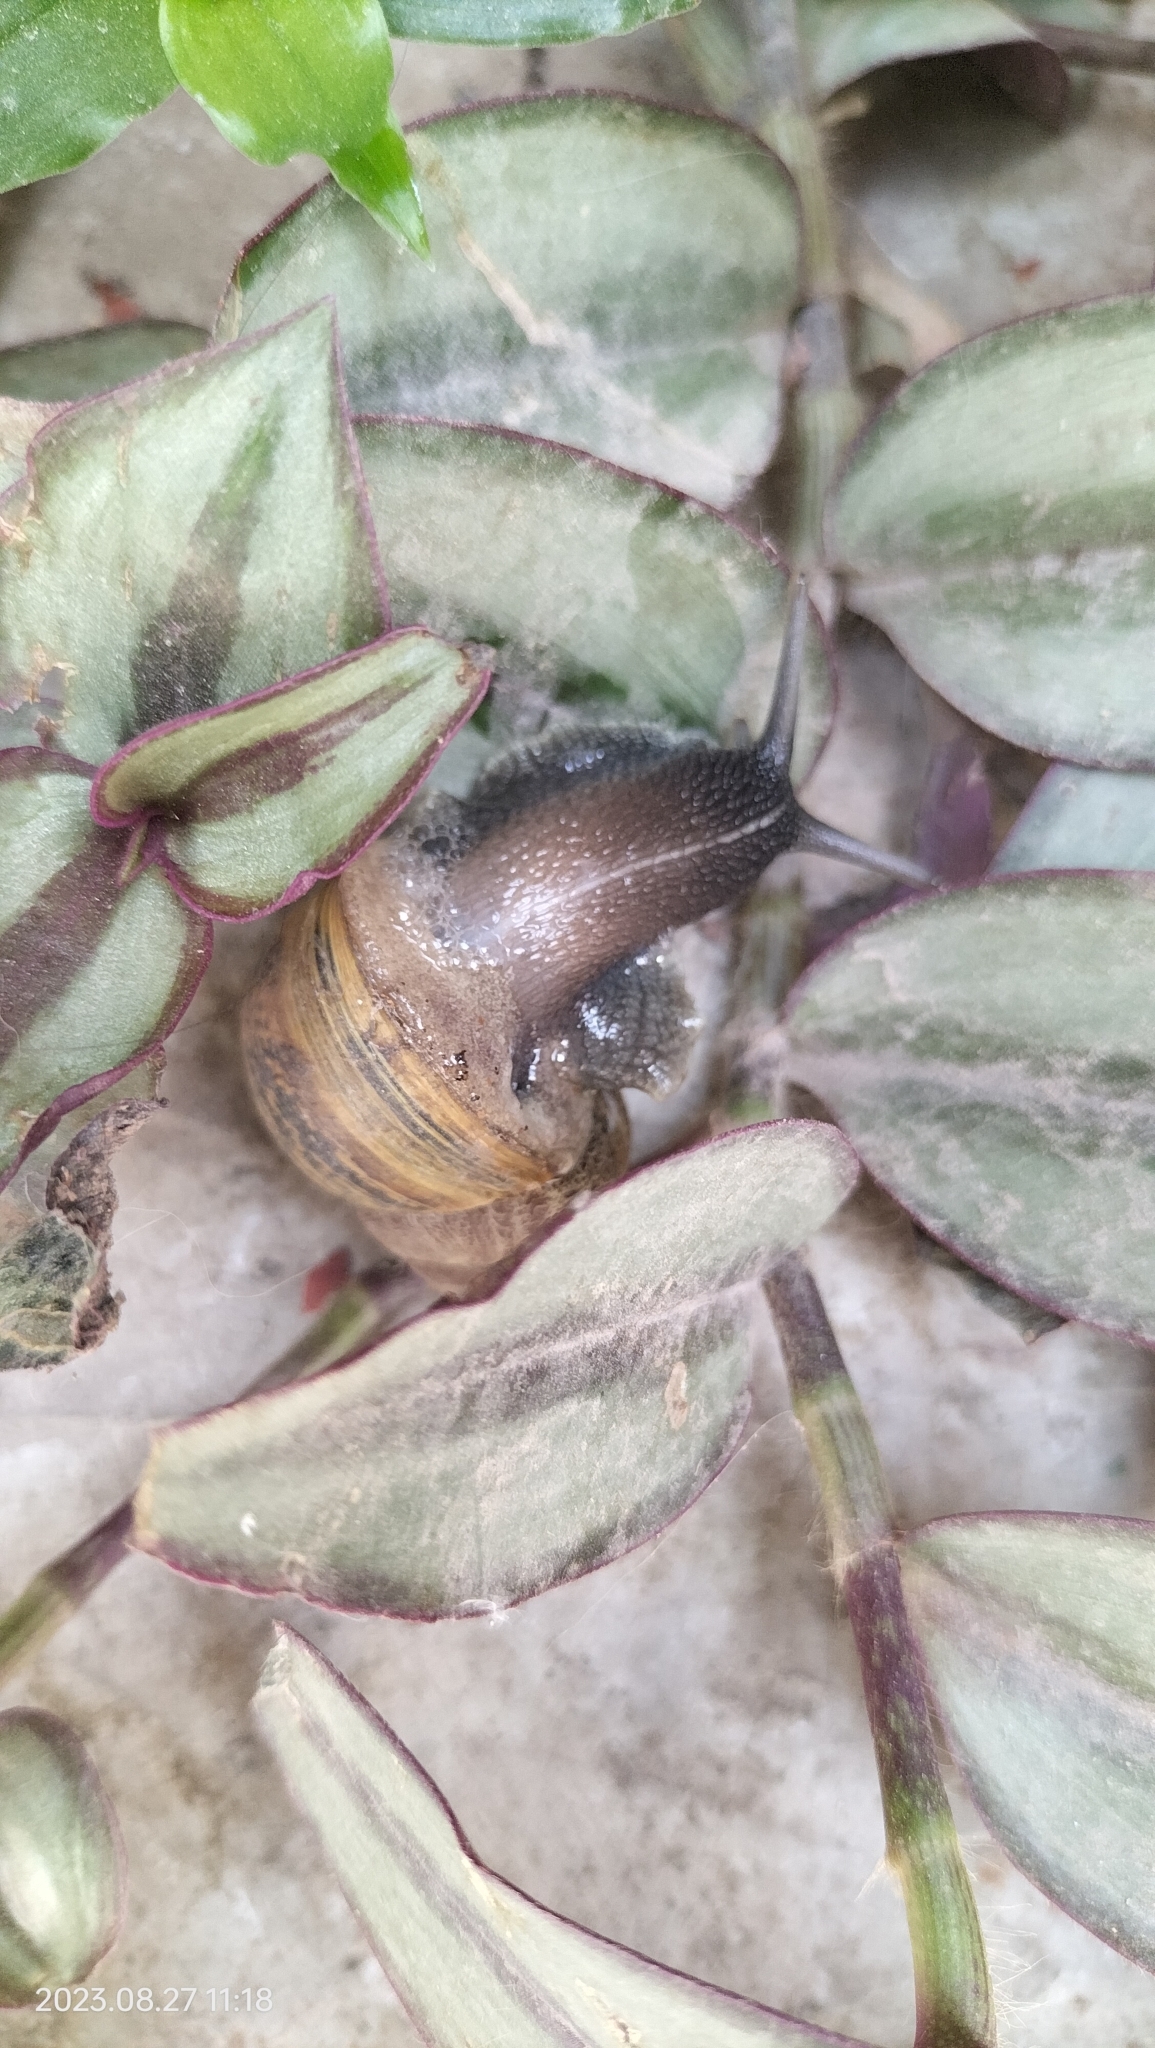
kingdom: Animalia
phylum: Mollusca
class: Gastropoda
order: Stylommatophora
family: Helicidae
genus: Cornu
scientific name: Cornu aspersum
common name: Brown garden snail
